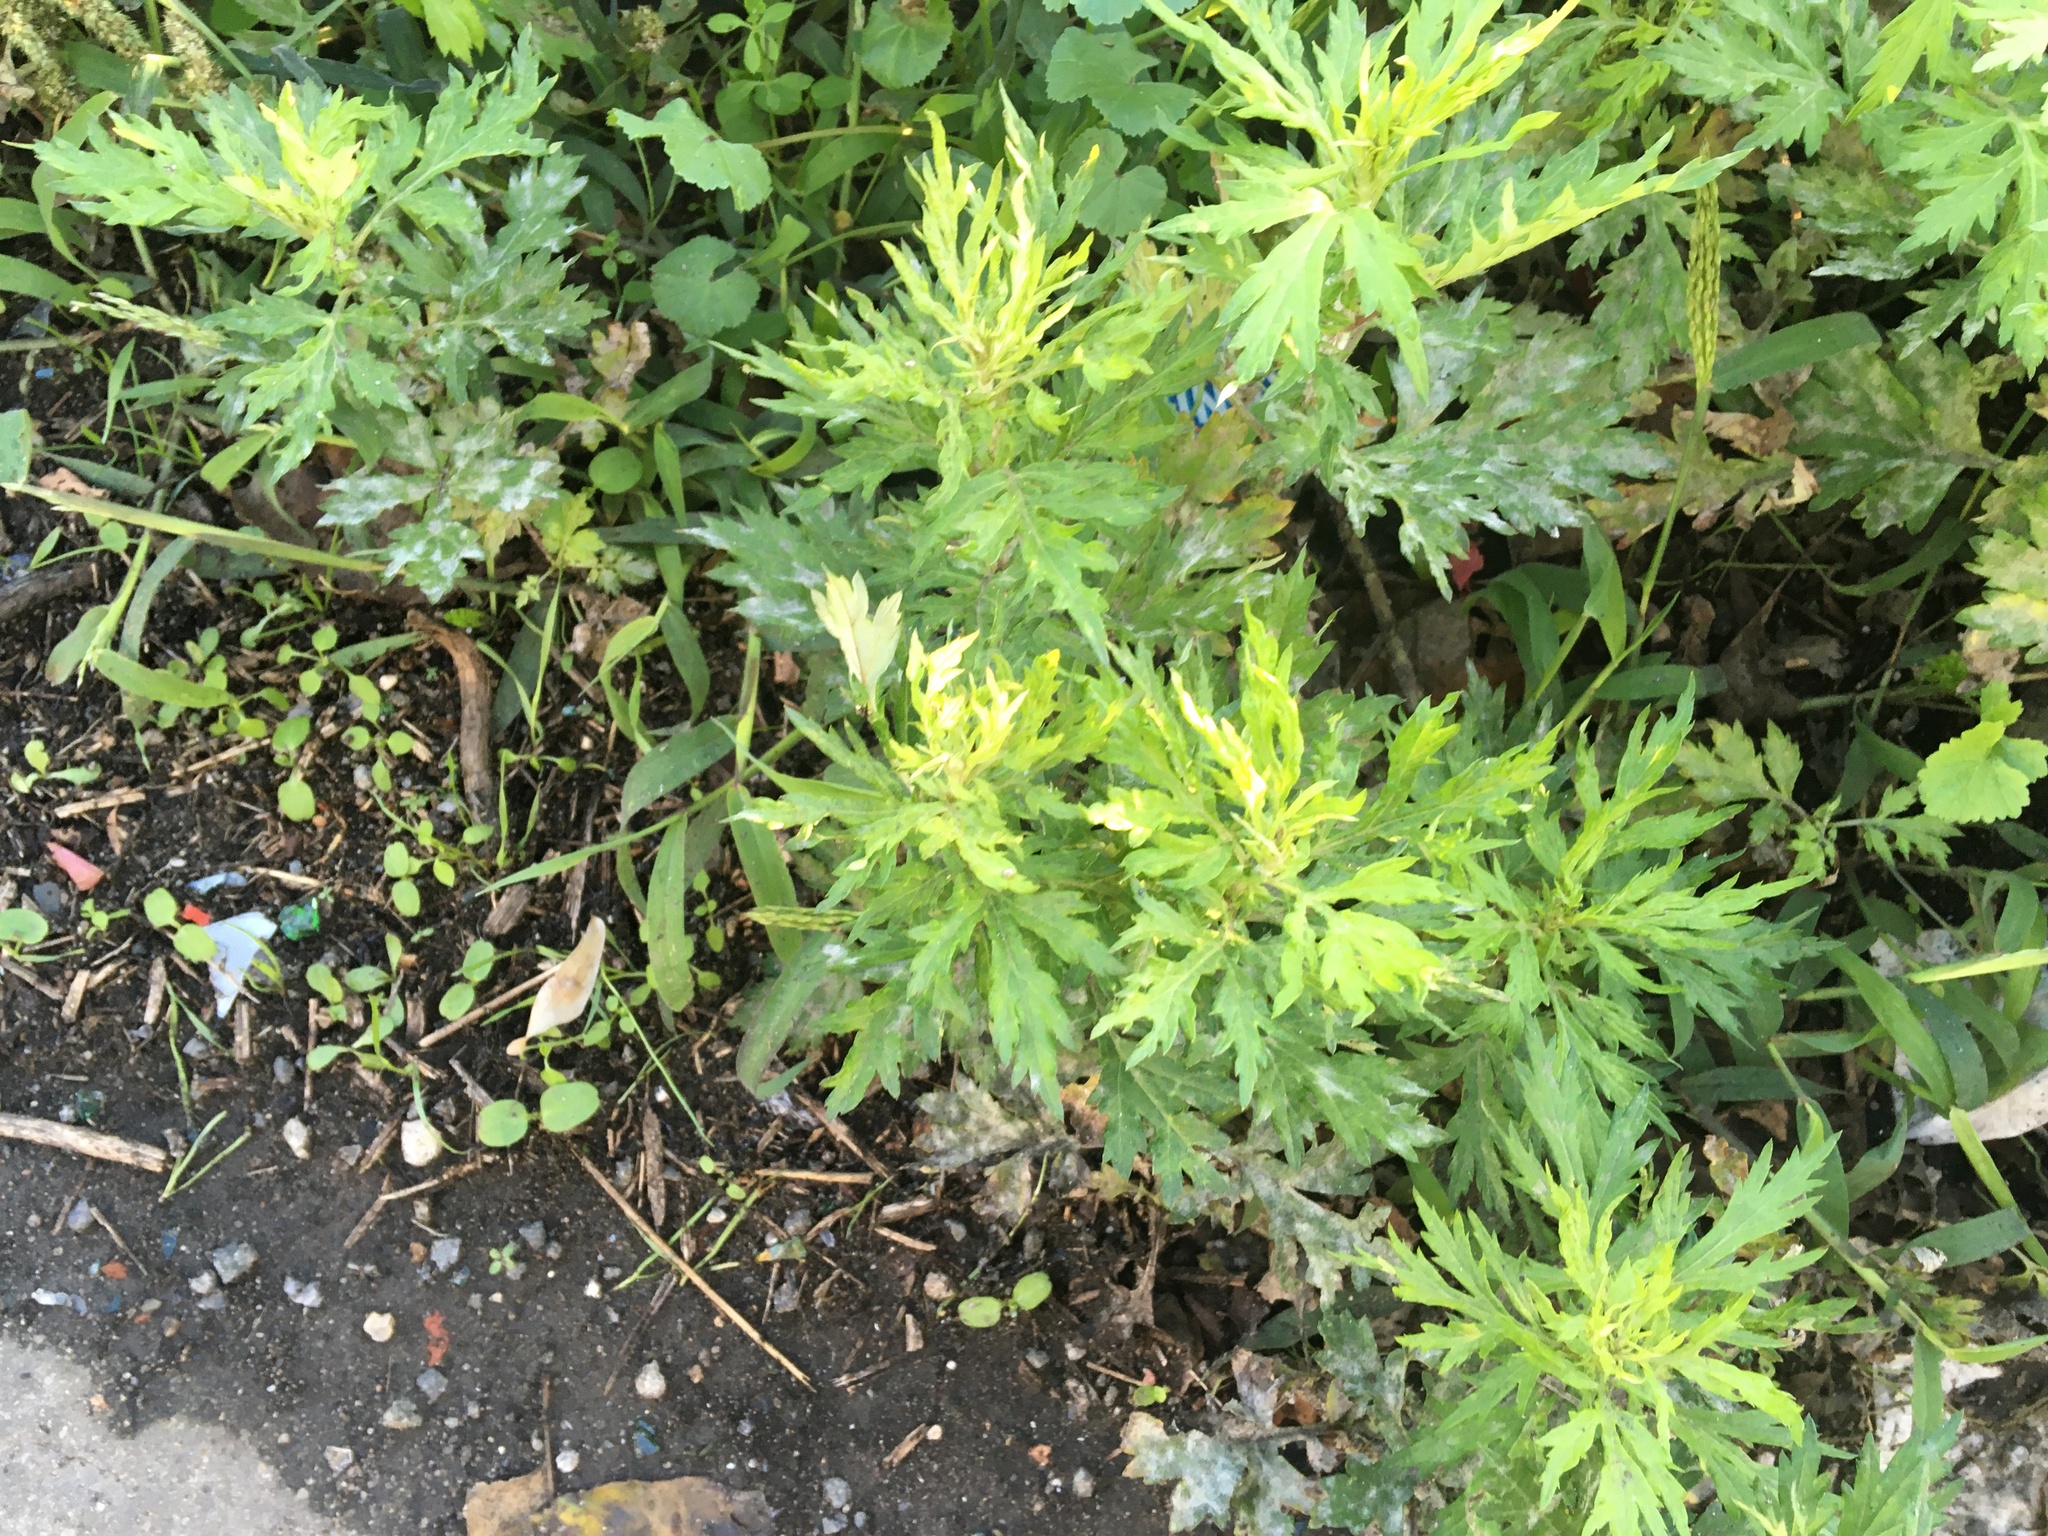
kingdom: Plantae
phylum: Tracheophyta
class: Magnoliopsida
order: Asterales
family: Asteraceae
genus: Artemisia
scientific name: Artemisia vulgaris
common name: Mugwort
